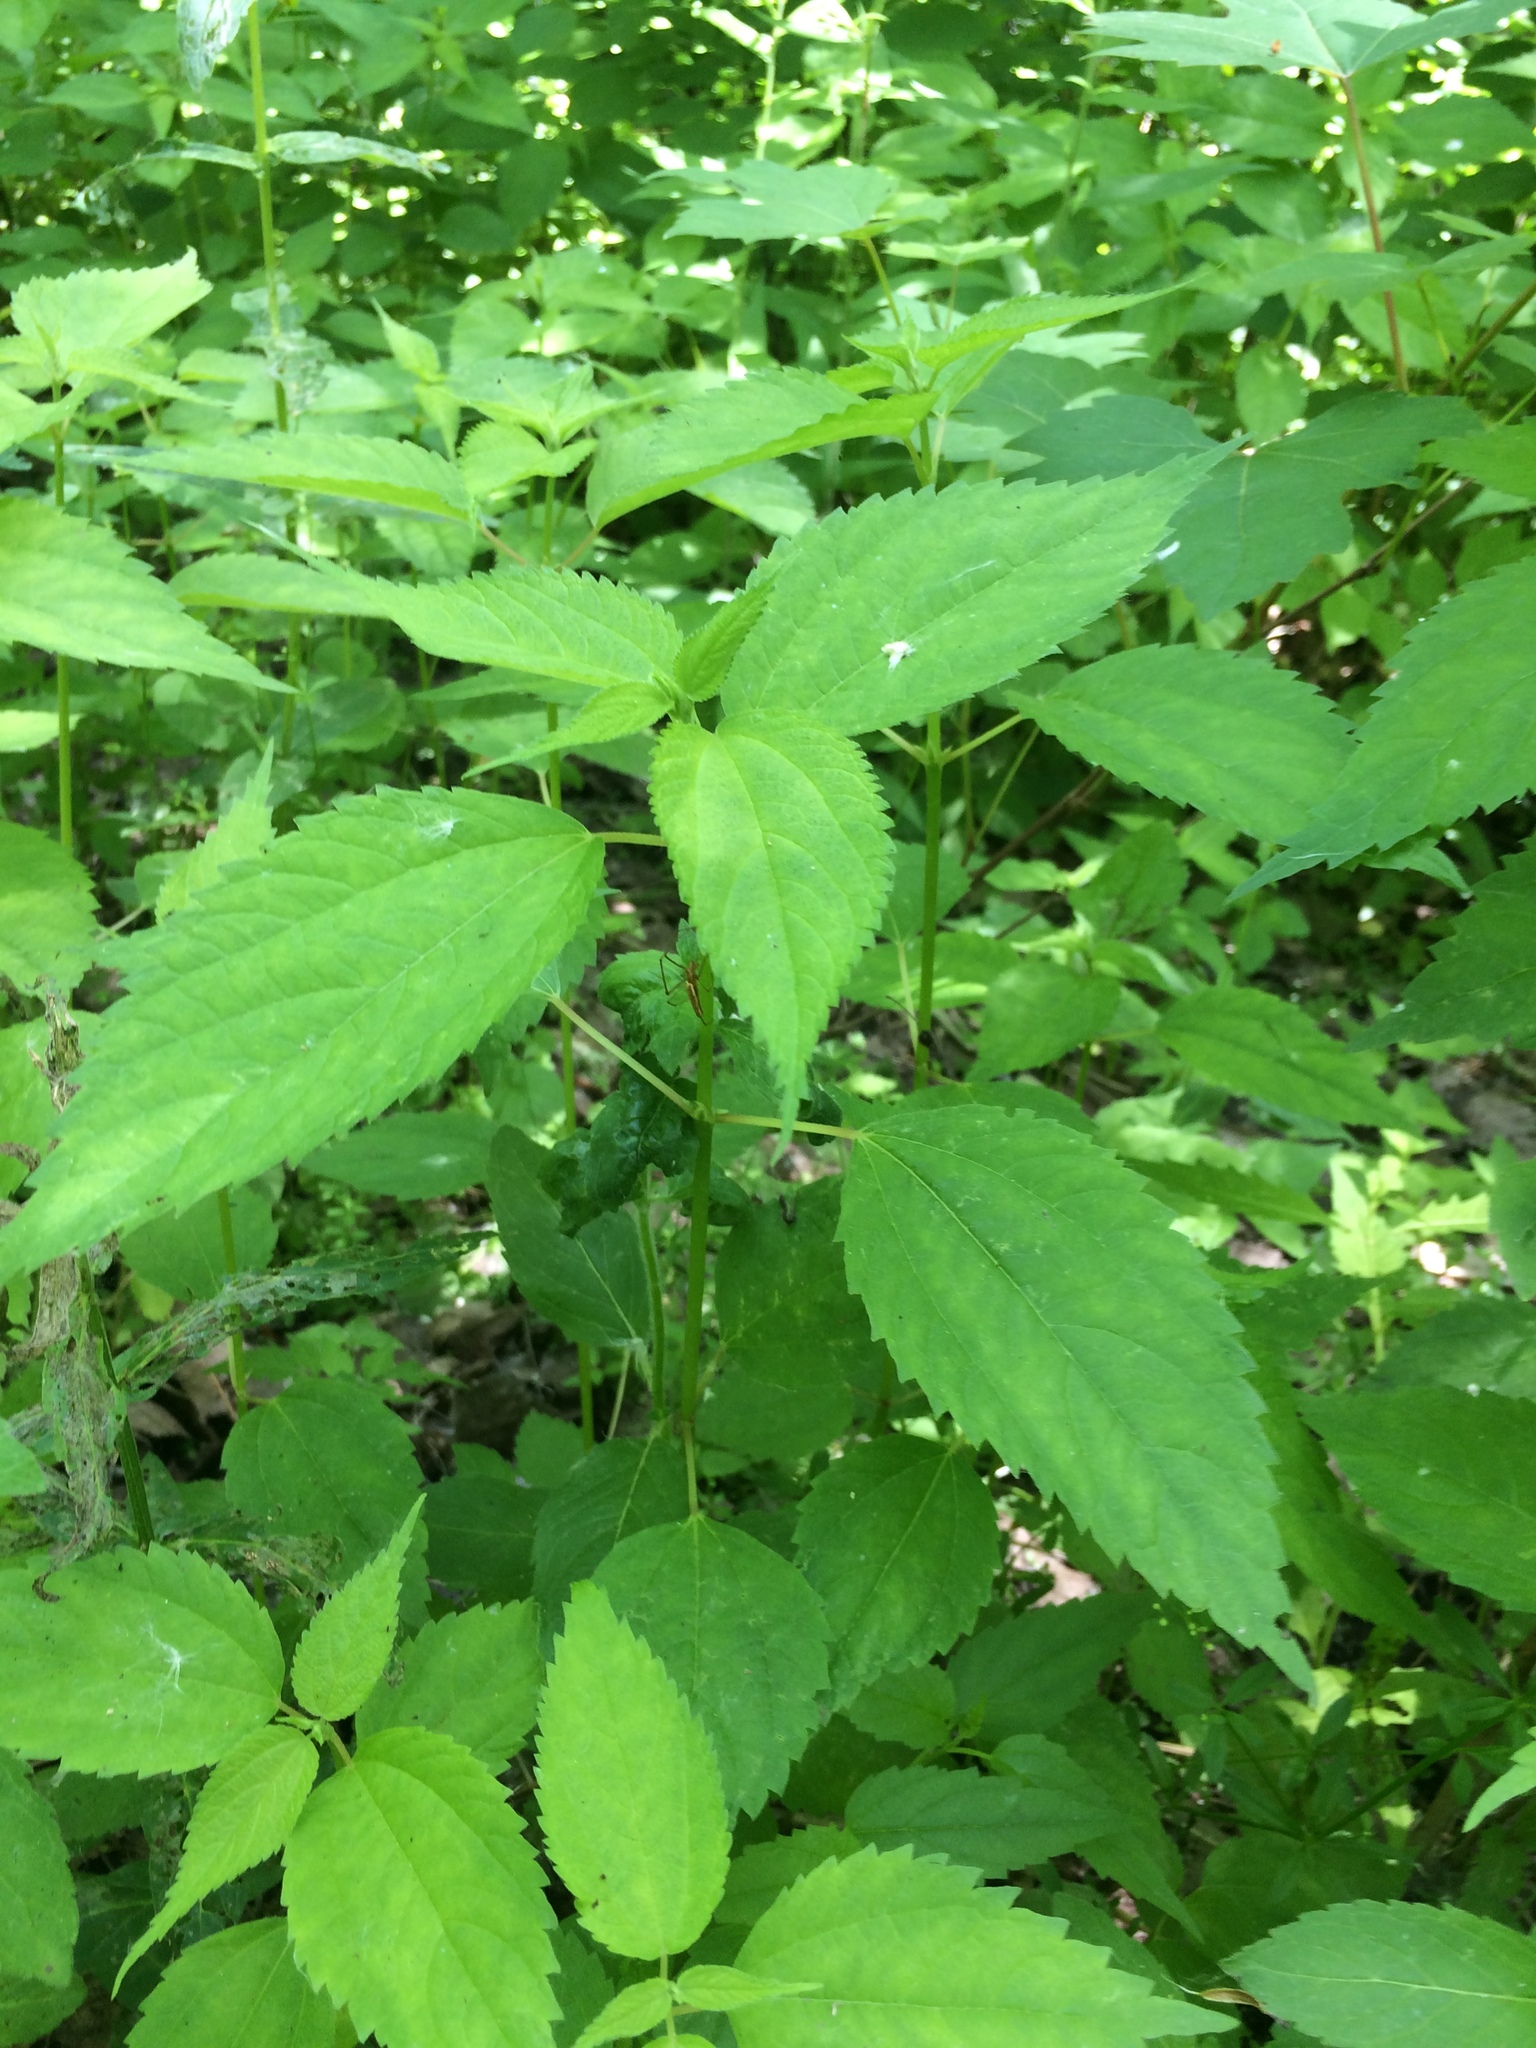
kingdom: Plantae
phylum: Tracheophyta
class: Magnoliopsida
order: Rosales
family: Urticaceae
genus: Boehmeria
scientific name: Boehmeria cylindrica
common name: Bog-hemp
